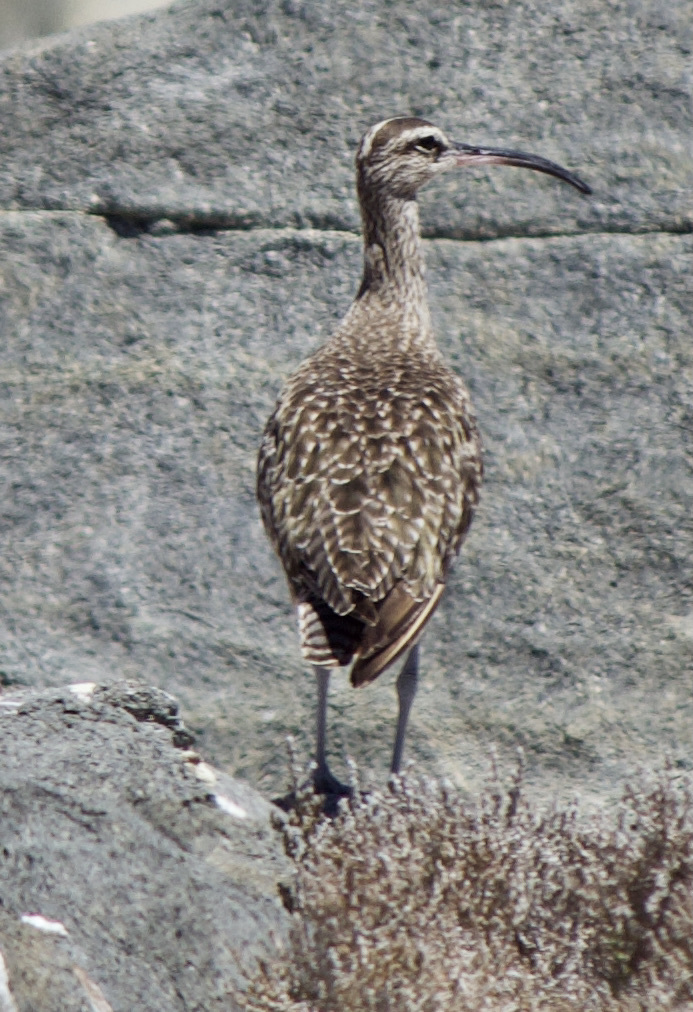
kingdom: Animalia
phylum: Chordata
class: Aves
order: Charadriiformes
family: Scolopacidae
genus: Numenius
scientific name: Numenius phaeopus
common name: Whimbrel
